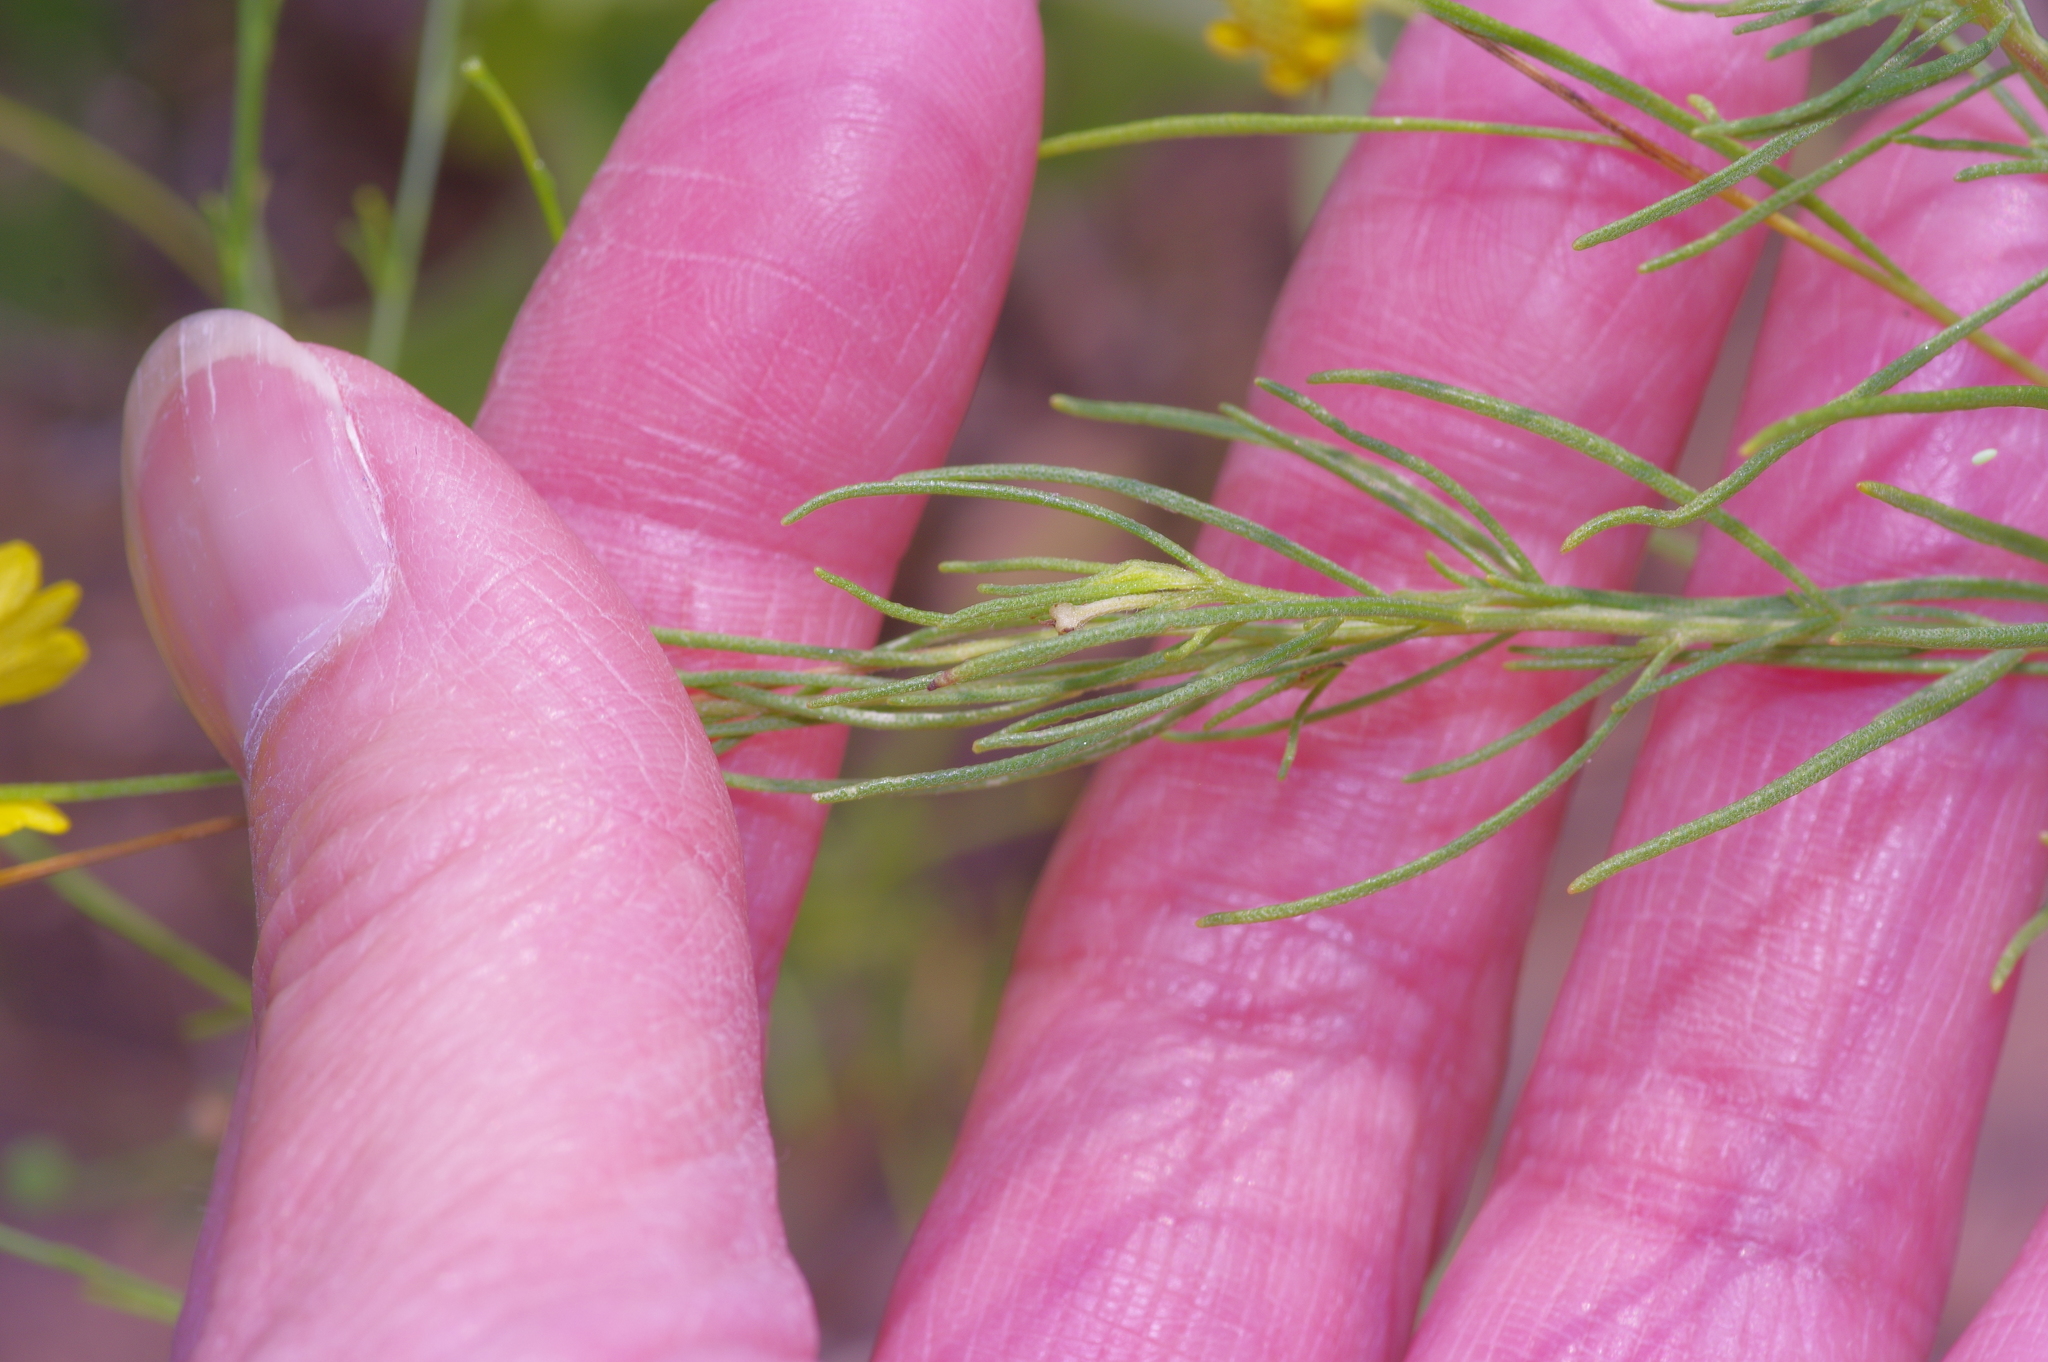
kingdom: Plantae
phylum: Tracheophyta
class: Magnoliopsida
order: Asterales
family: Asteraceae
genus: Helenium
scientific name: Helenium amarum
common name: Bitter sneezeweed
